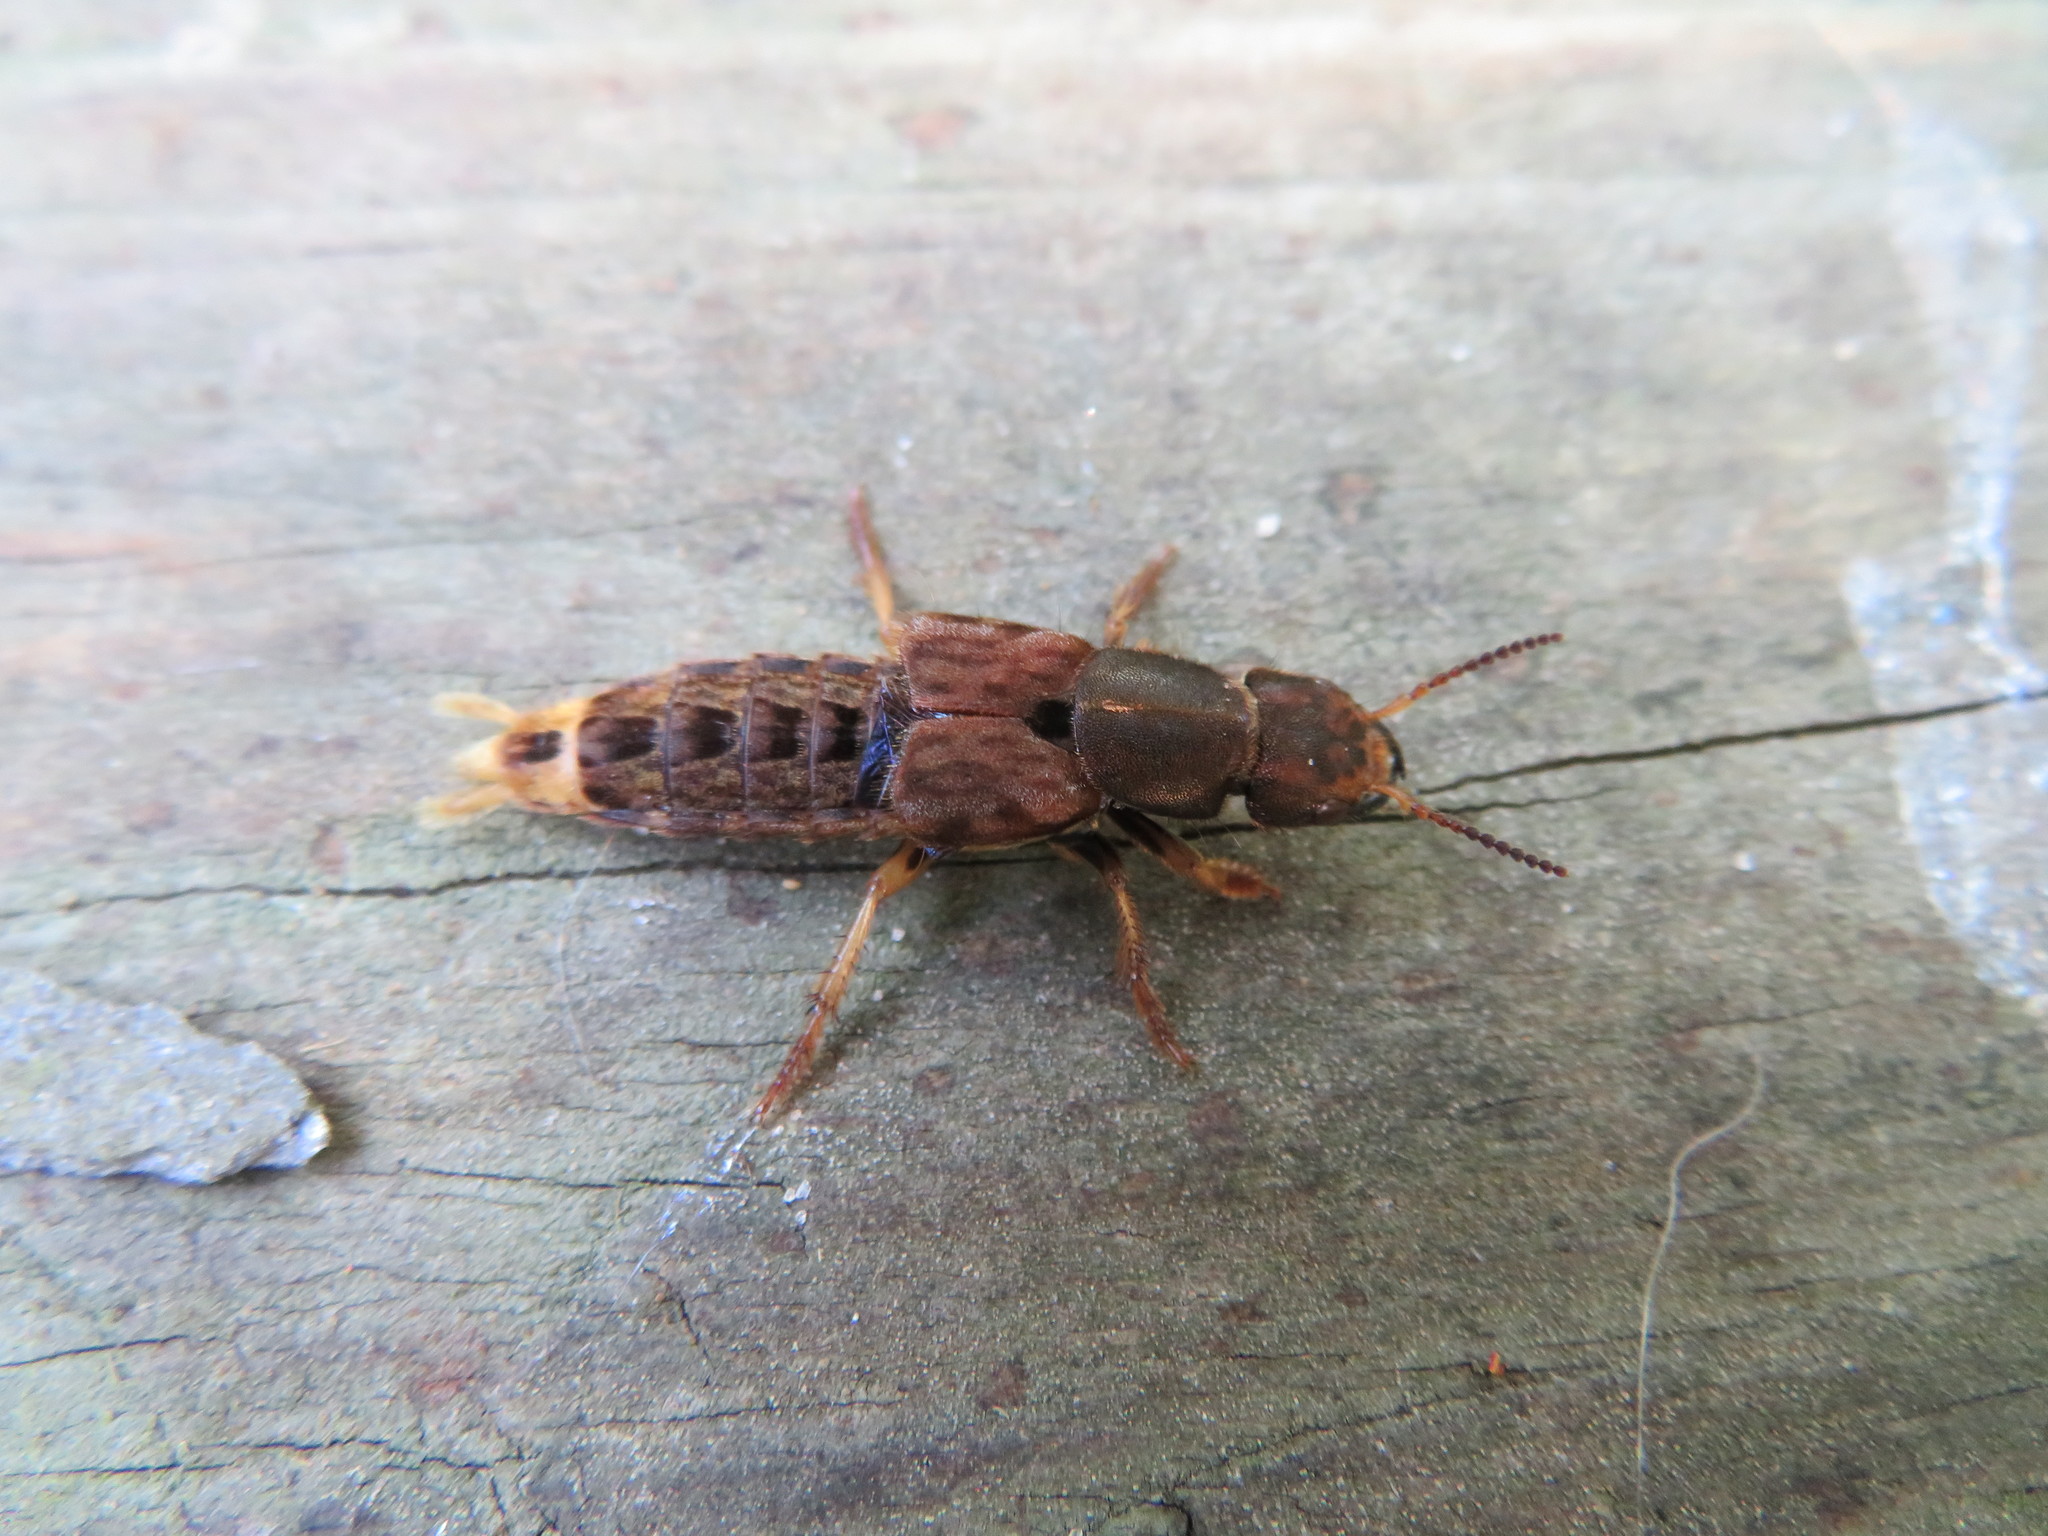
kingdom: Animalia
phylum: Arthropoda
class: Insecta
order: Coleoptera
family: Staphylinidae
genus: Platydracus
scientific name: Platydracus maculosus
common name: Brown rove beetle
